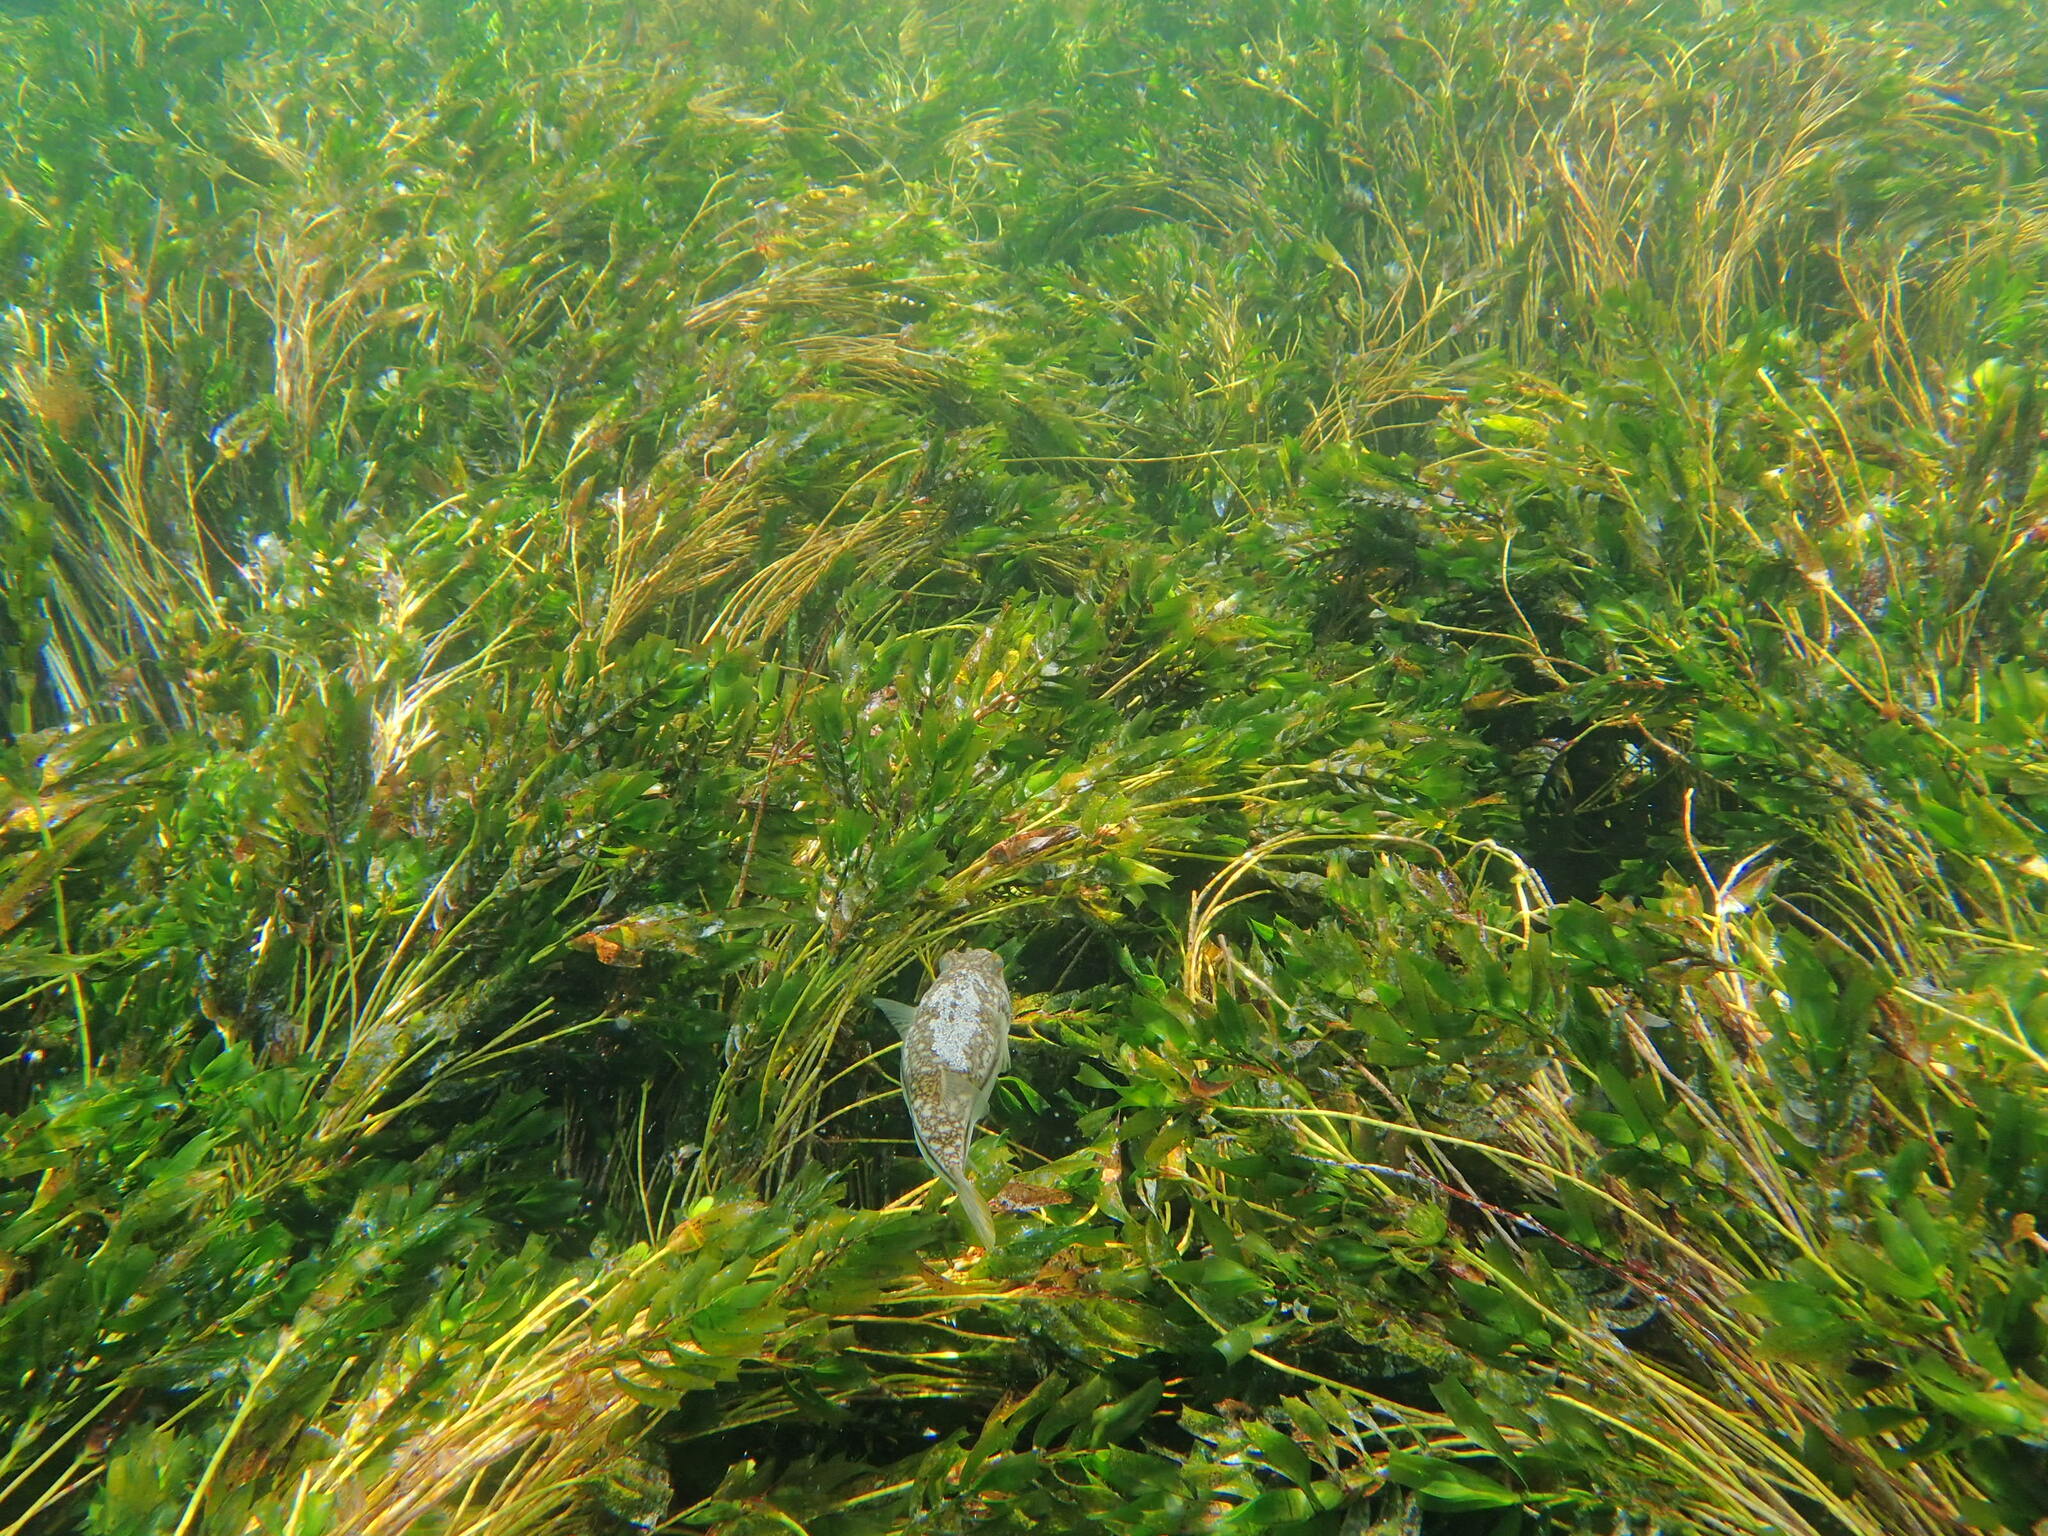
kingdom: Plantae
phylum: Tracheophyta
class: Liliopsida
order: Alismatales
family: Cymodoceaceae
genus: Amphibolis
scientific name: Amphibolis antarctica
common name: Species code: aa
